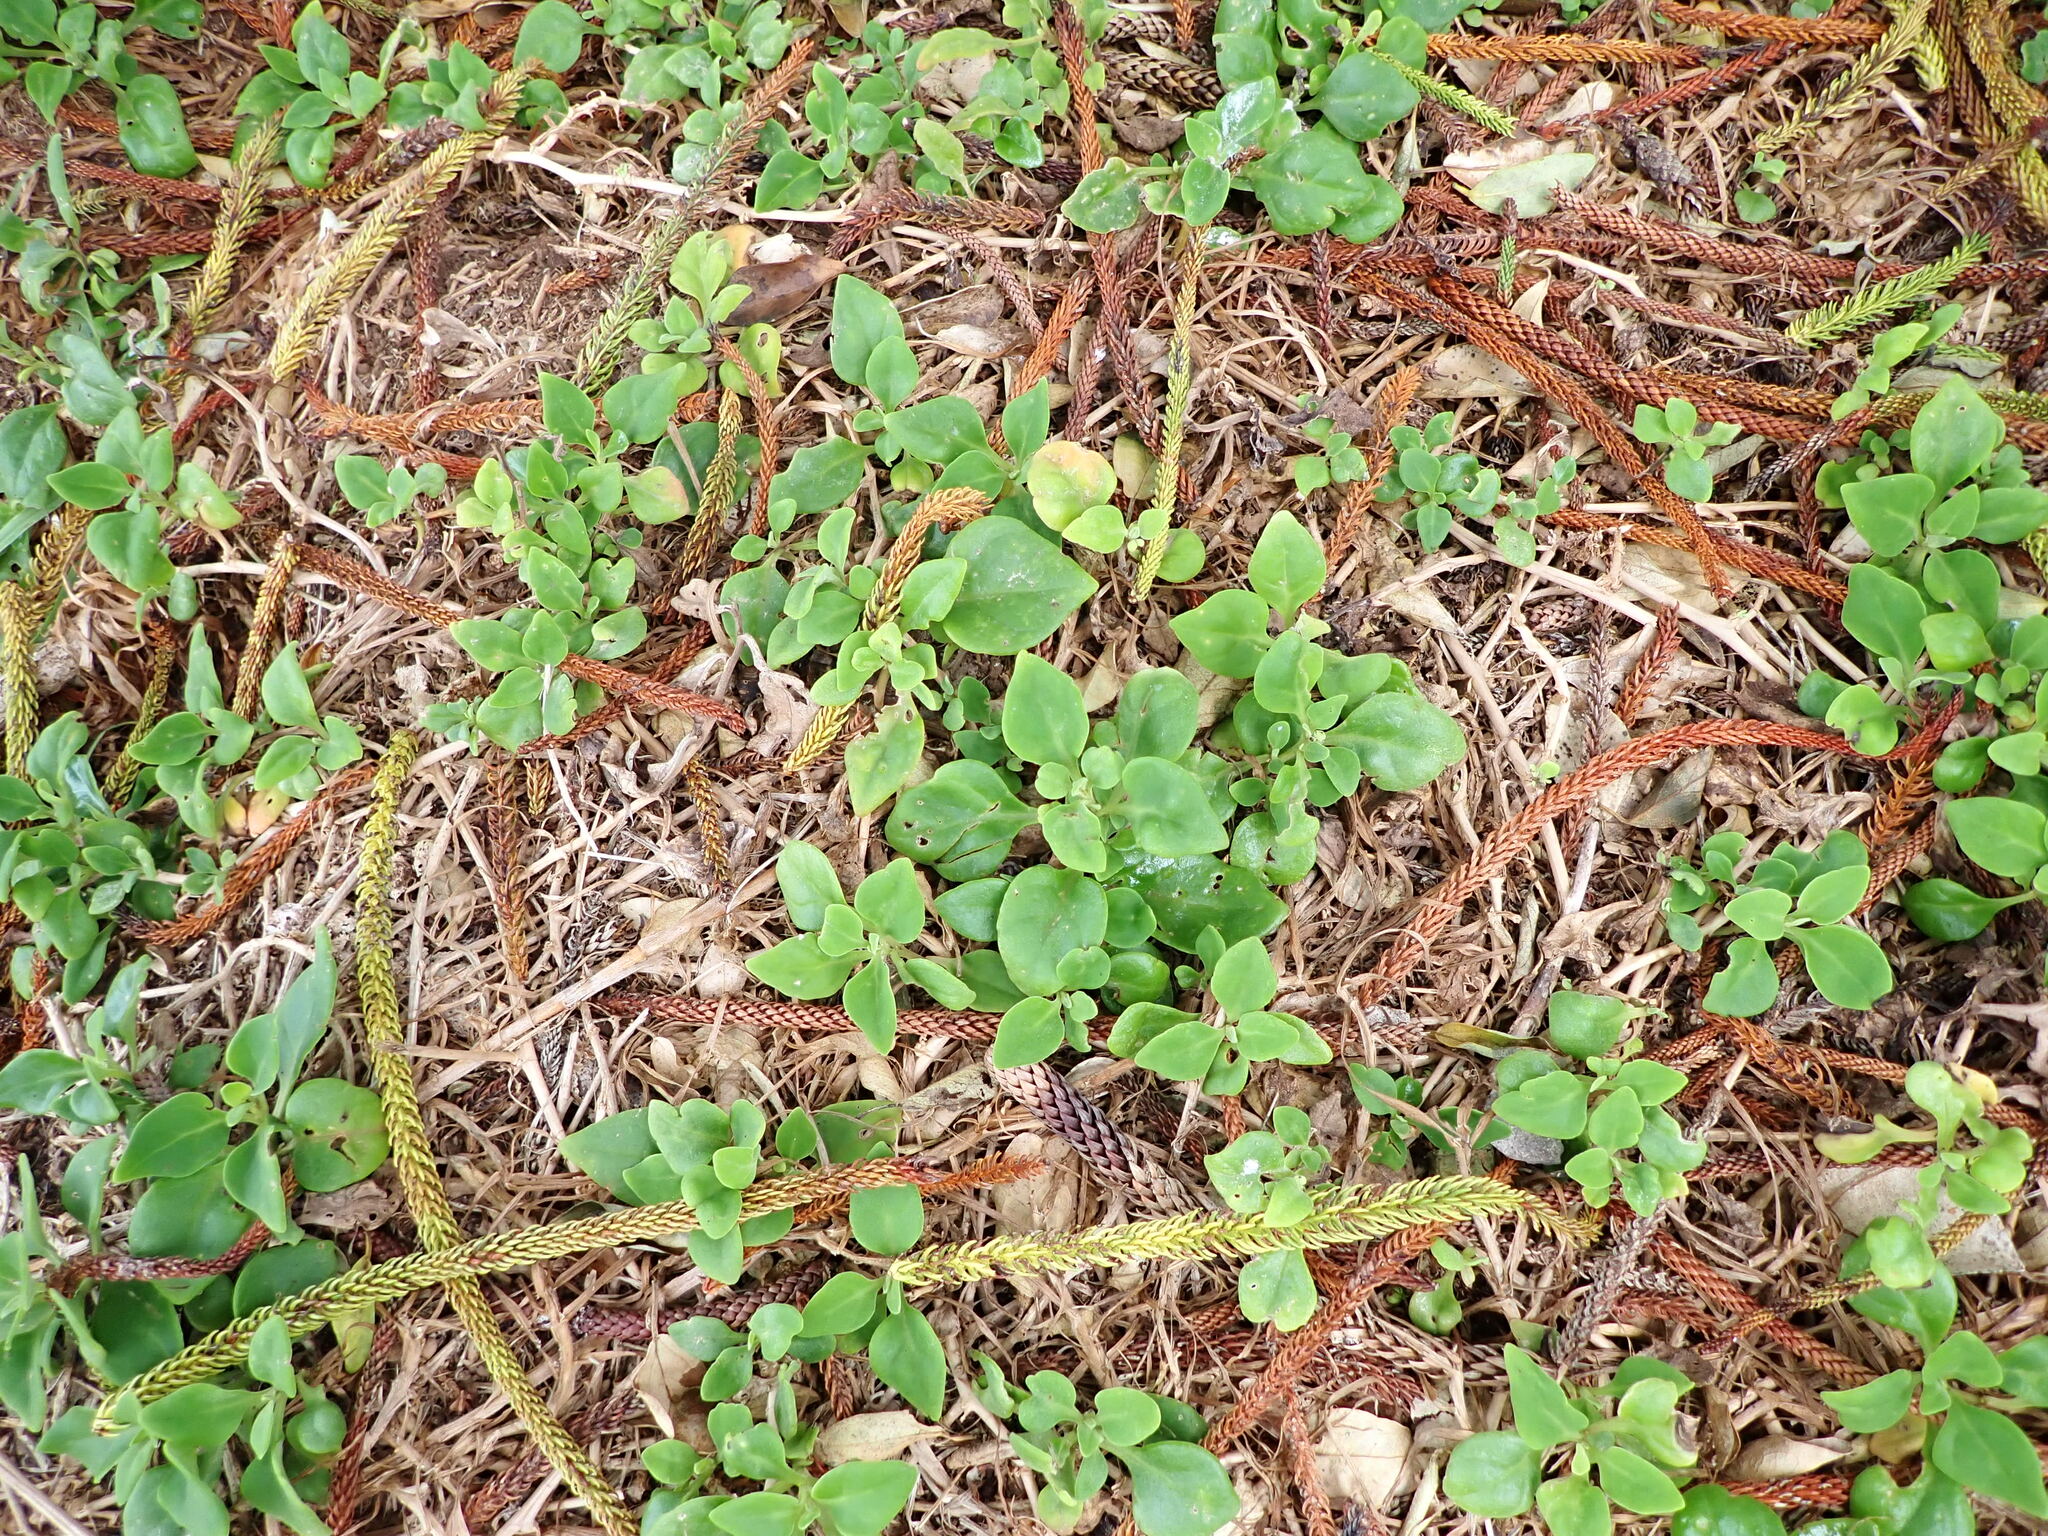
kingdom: Plantae
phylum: Tracheophyta
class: Magnoliopsida
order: Caryophyllales
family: Aizoaceae
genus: Tetragonia
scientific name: Tetragonia implexicoma
